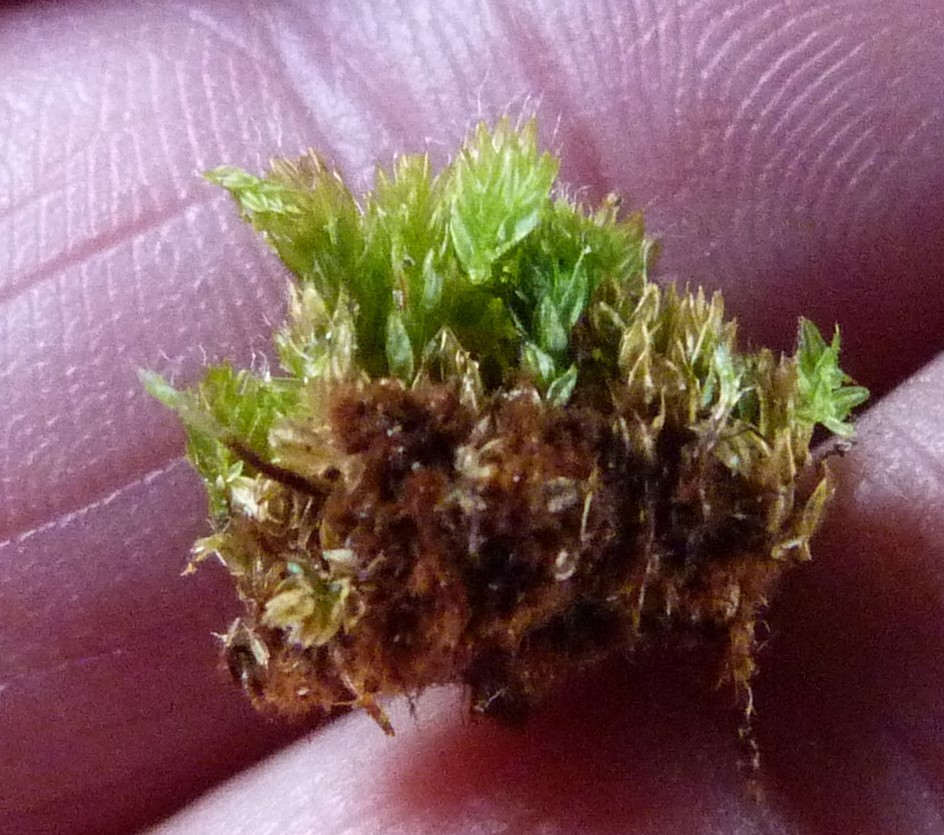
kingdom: Plantae
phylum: Bryophyta
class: Bryopsida
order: Bryales
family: Leptostomataceae
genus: Leptostomum
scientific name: Leptostomum inclinans
